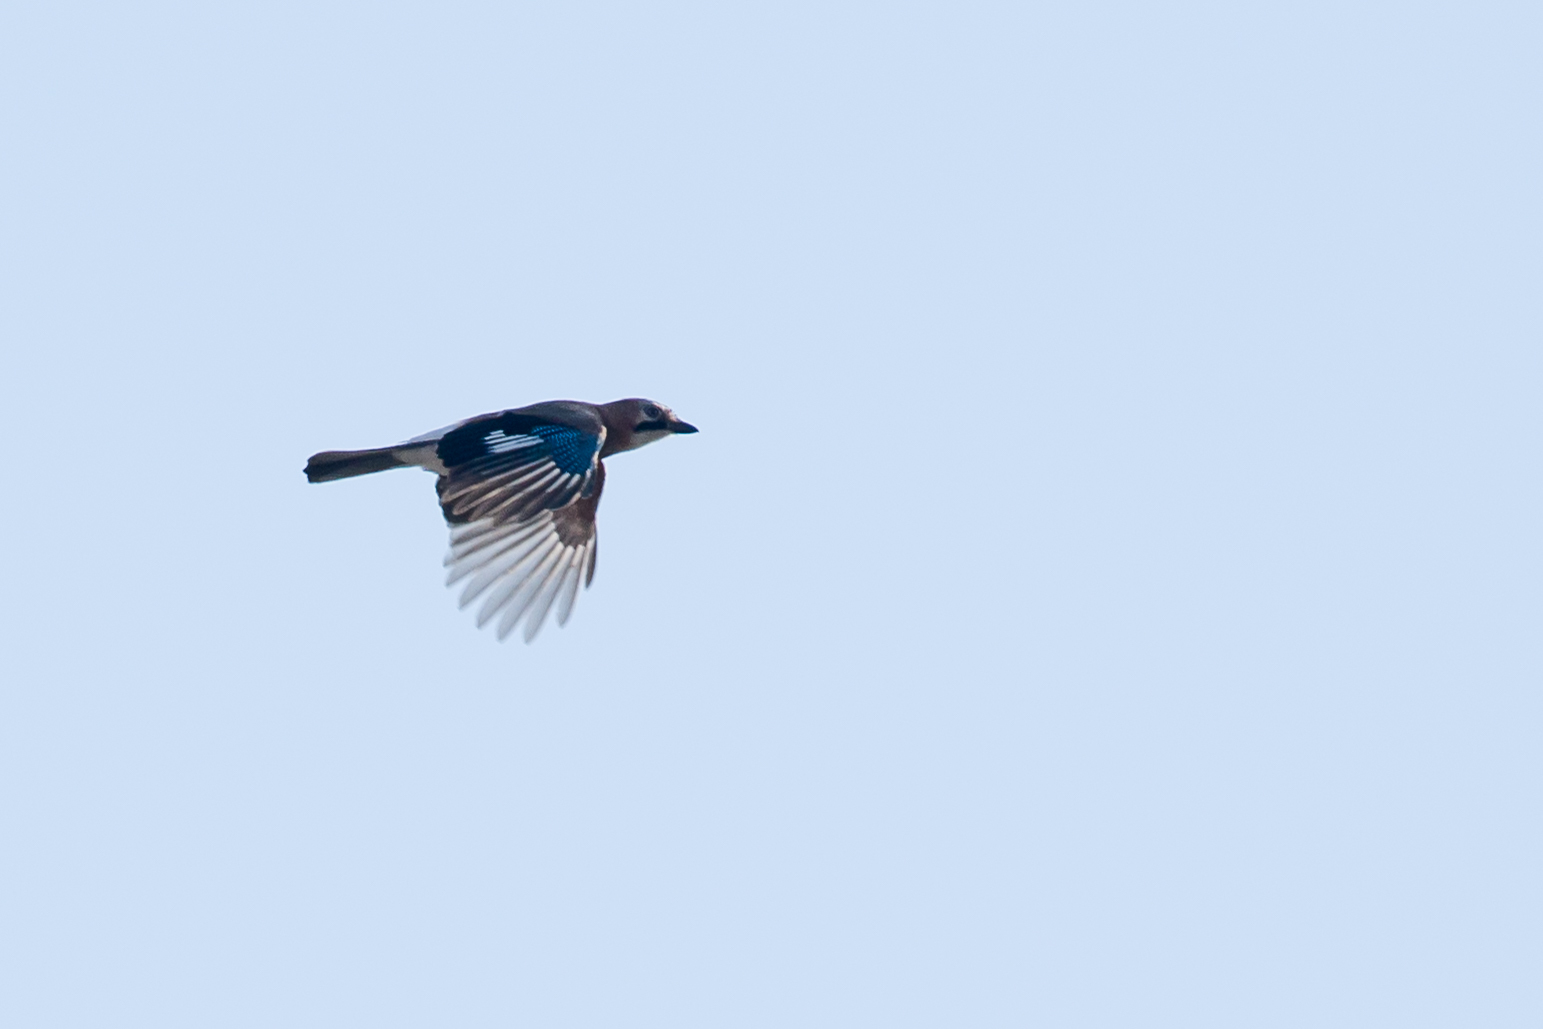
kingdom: Animalia
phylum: Chordata
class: Aves
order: Passeriformes
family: Corvidae
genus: Garrulus
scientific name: Garrulus glandarius
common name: Eurasian jay
